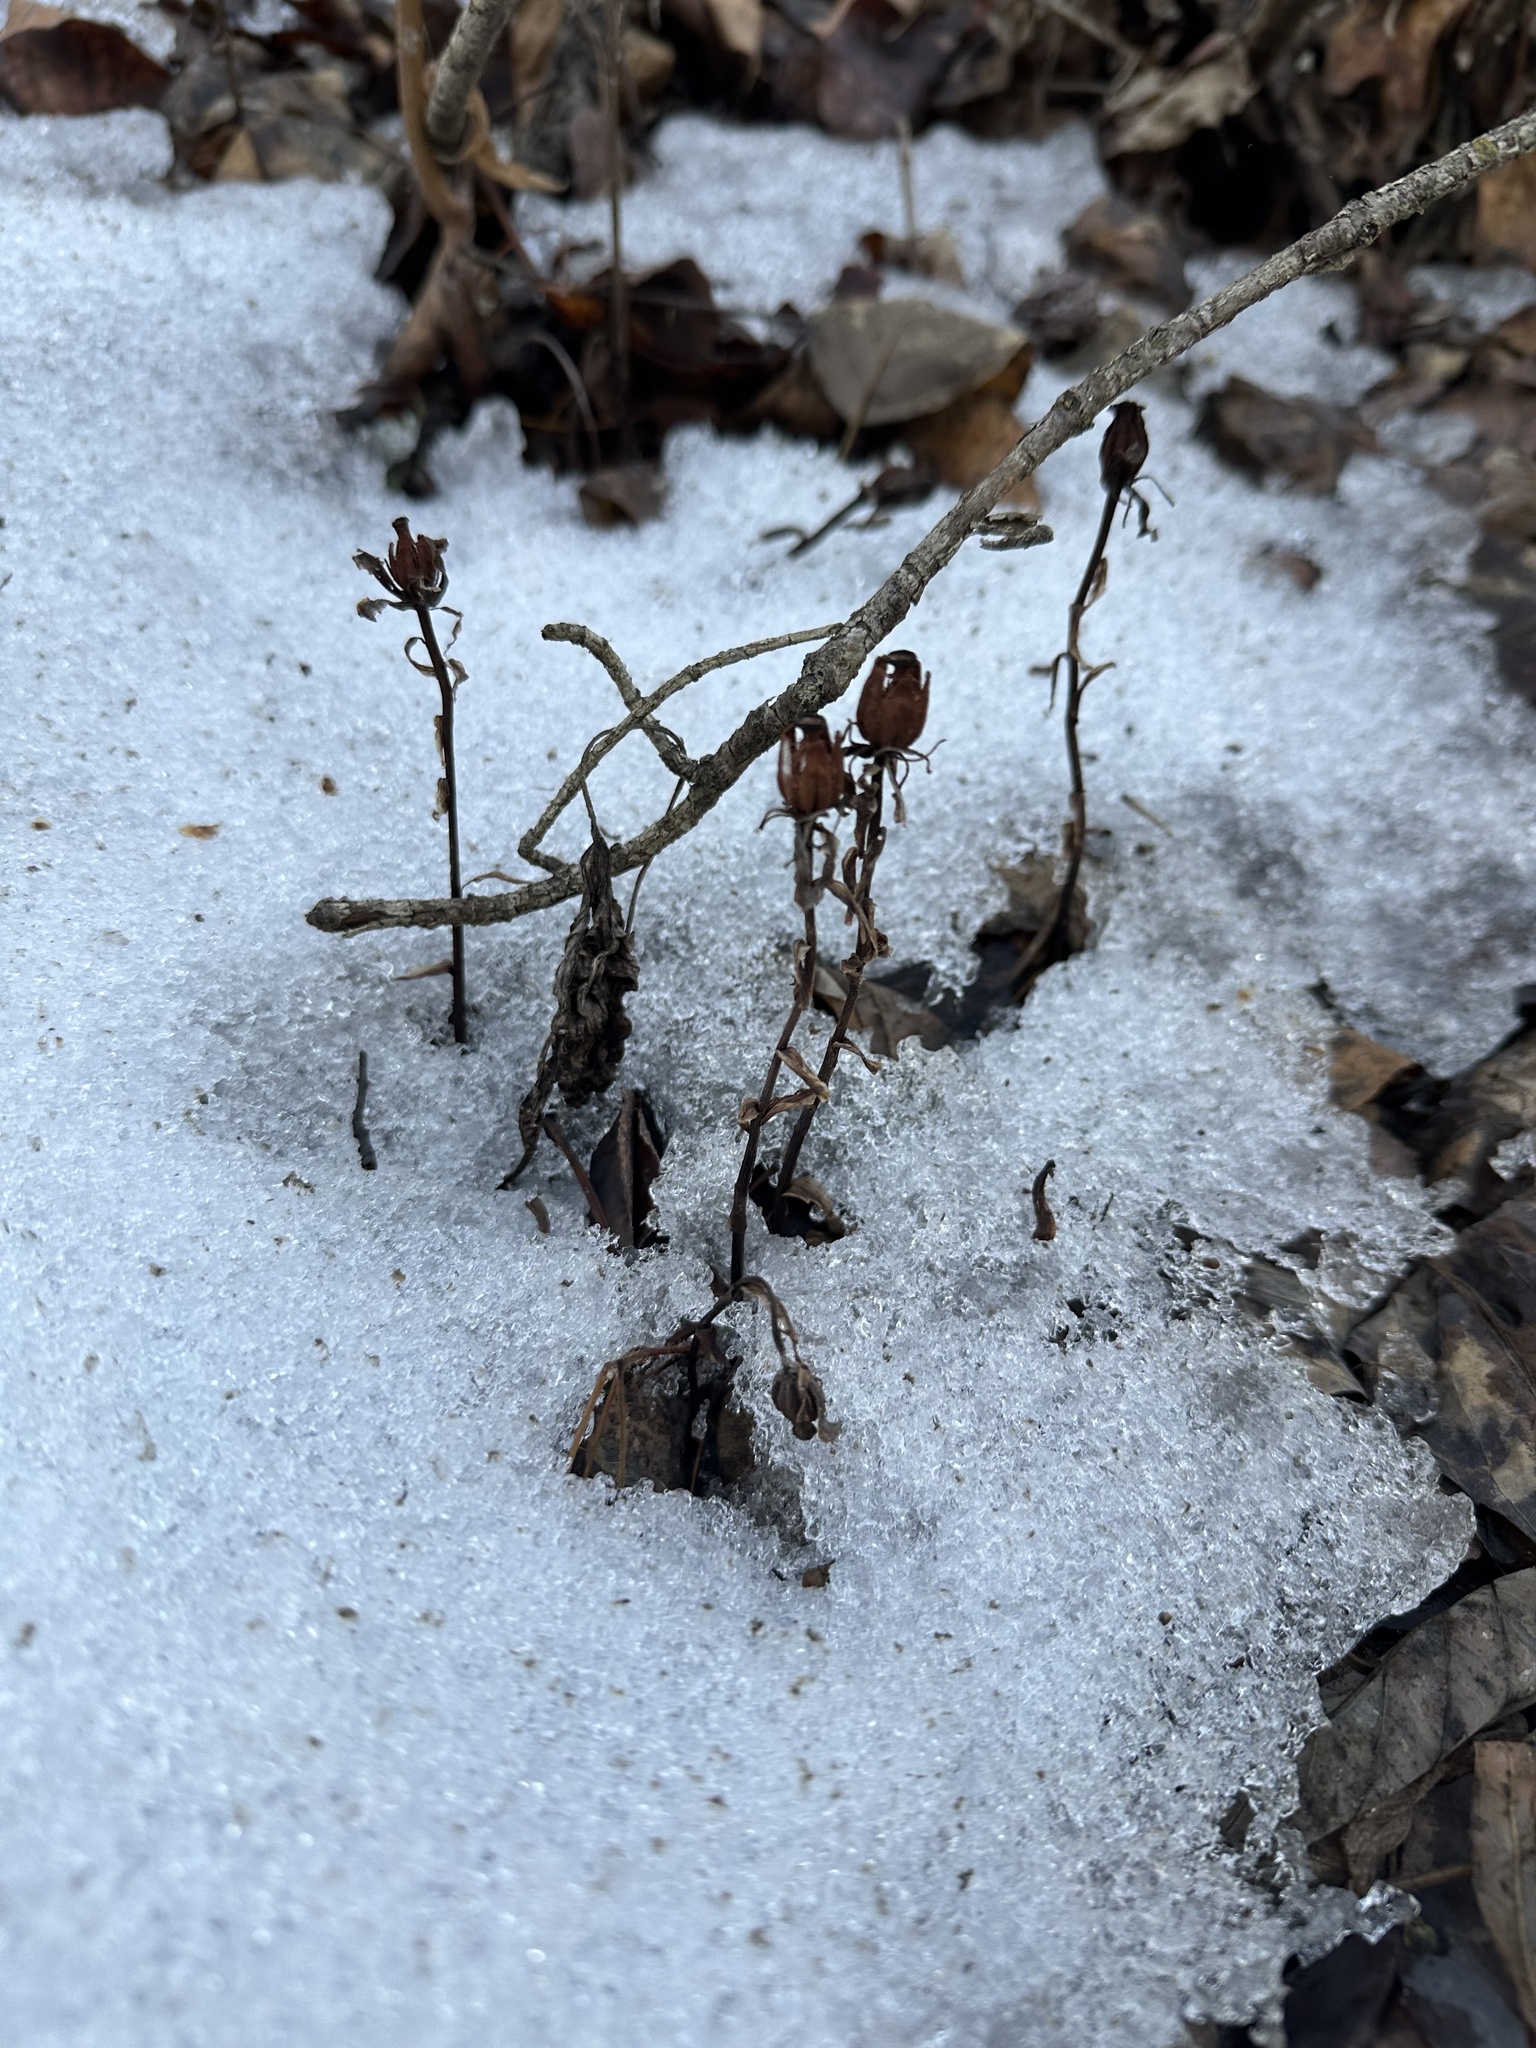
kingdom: Plantae
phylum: Tracheophyta
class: Magnoliopsida
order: Ericales
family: Ericaceae
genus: Monotropa
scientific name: Monotropa uniflora
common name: Convulsion root
